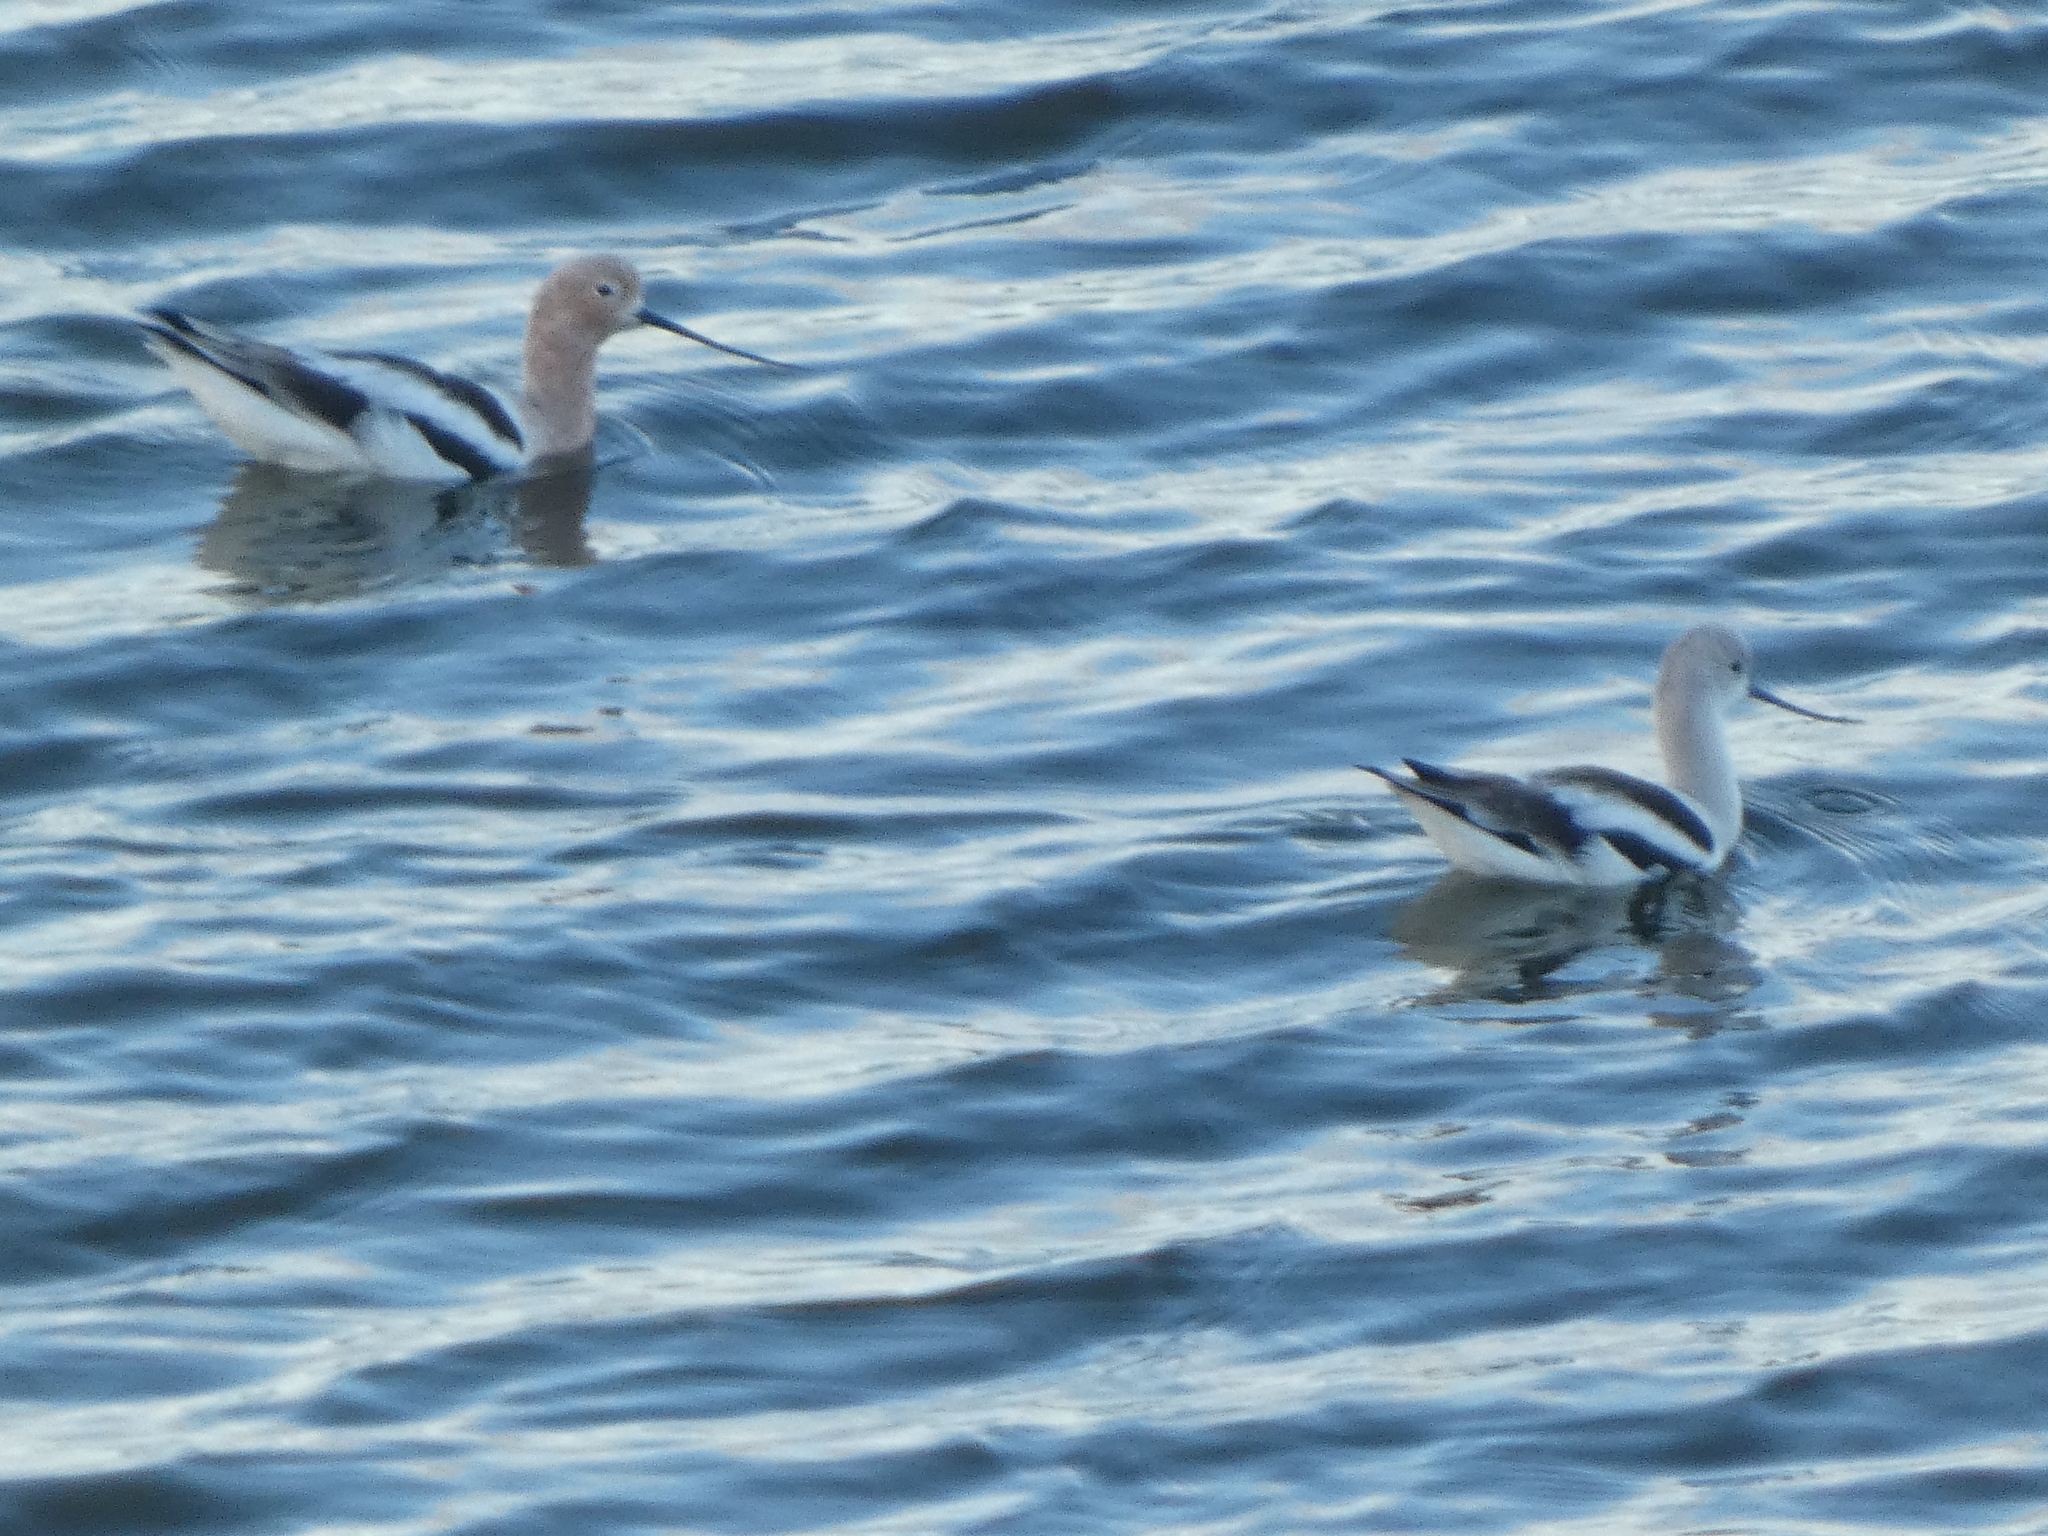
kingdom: Animalia
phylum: Chordata
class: Aves
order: Charadriiformes
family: Recurvirostridae
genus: Recurvirostra
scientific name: Recurvirostra americana
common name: American avocet
